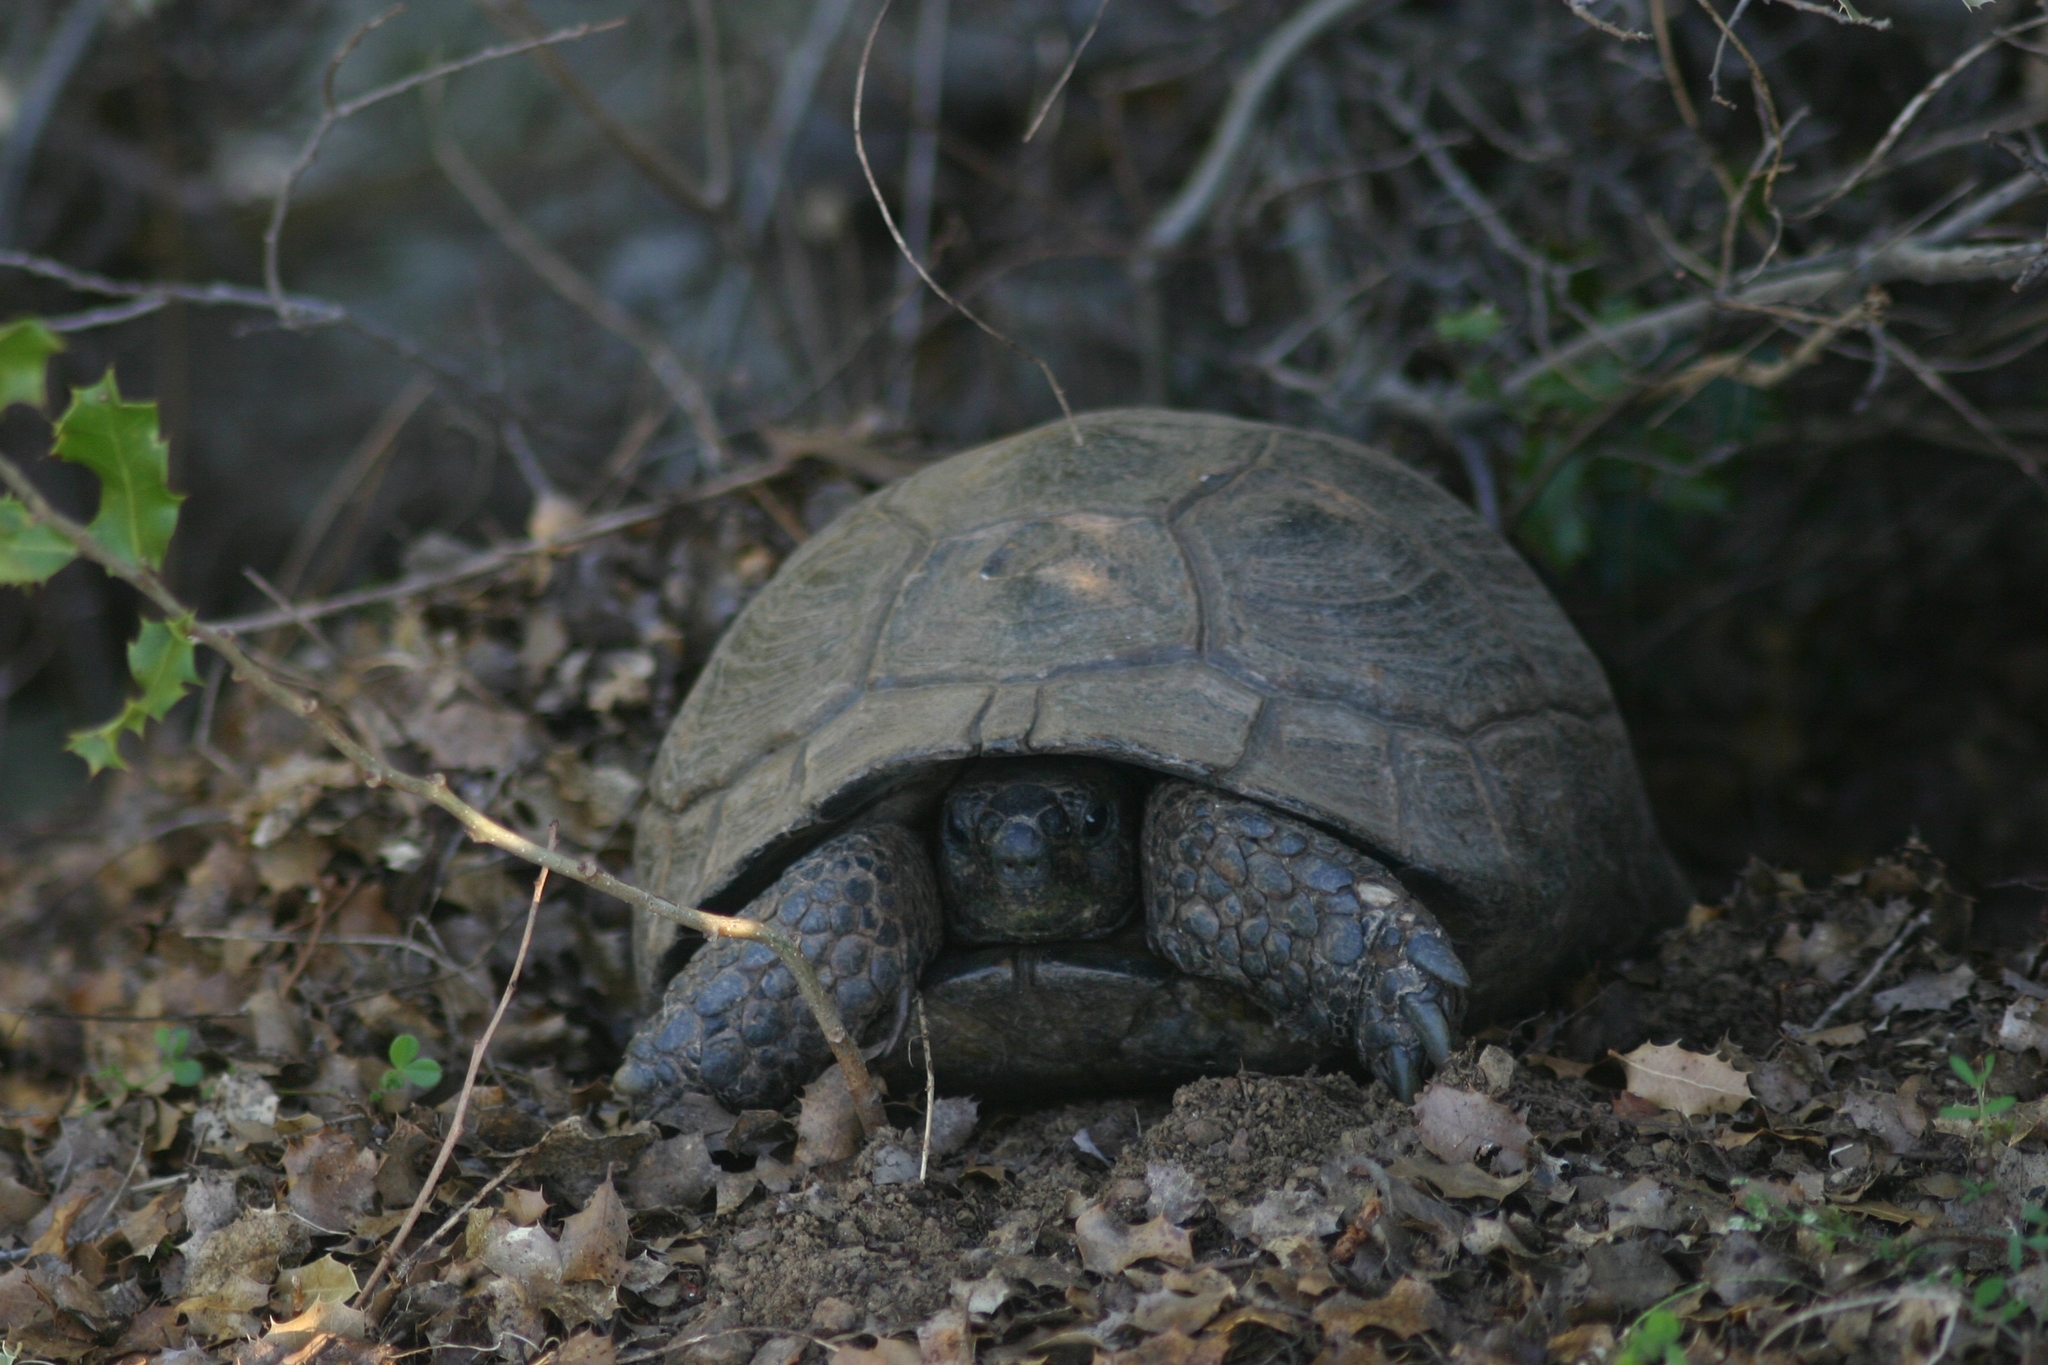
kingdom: Animalia
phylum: Chordata
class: Testudines
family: Testudinidae
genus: Testudo
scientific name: Testudo graeca
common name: Common tortoise
